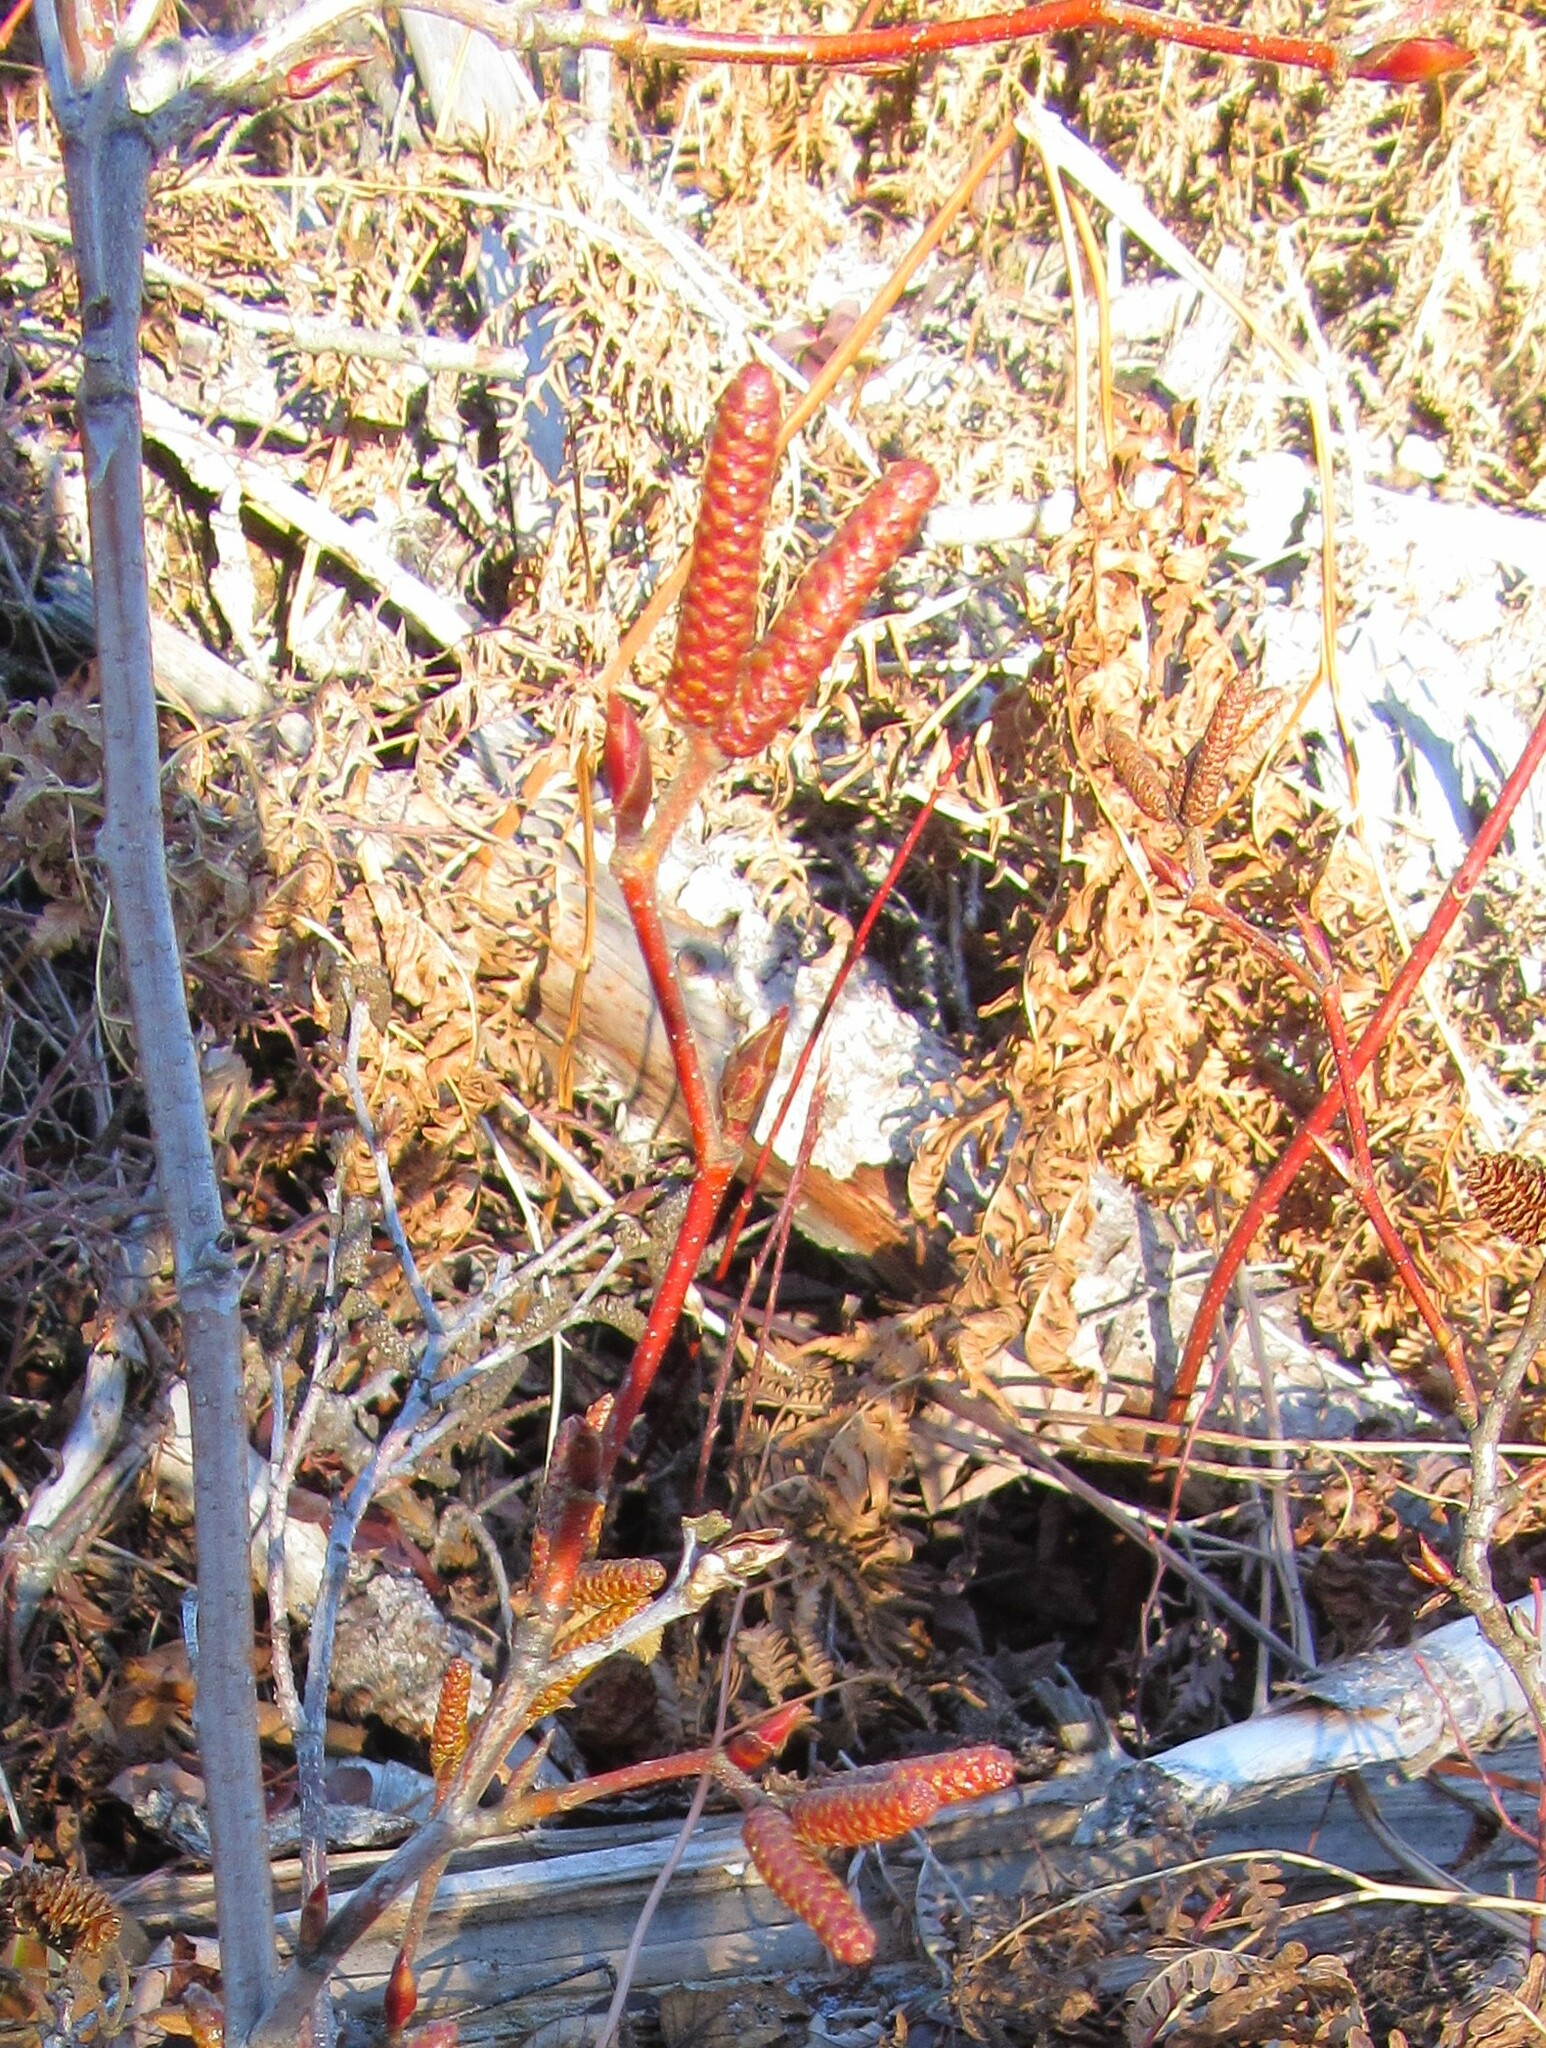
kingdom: Plantae
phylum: Tracheophyta
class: Magnoliopsida
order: Fagales
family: Betulaceae
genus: Alnus
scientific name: Alnus alnobetula
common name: Green alder
